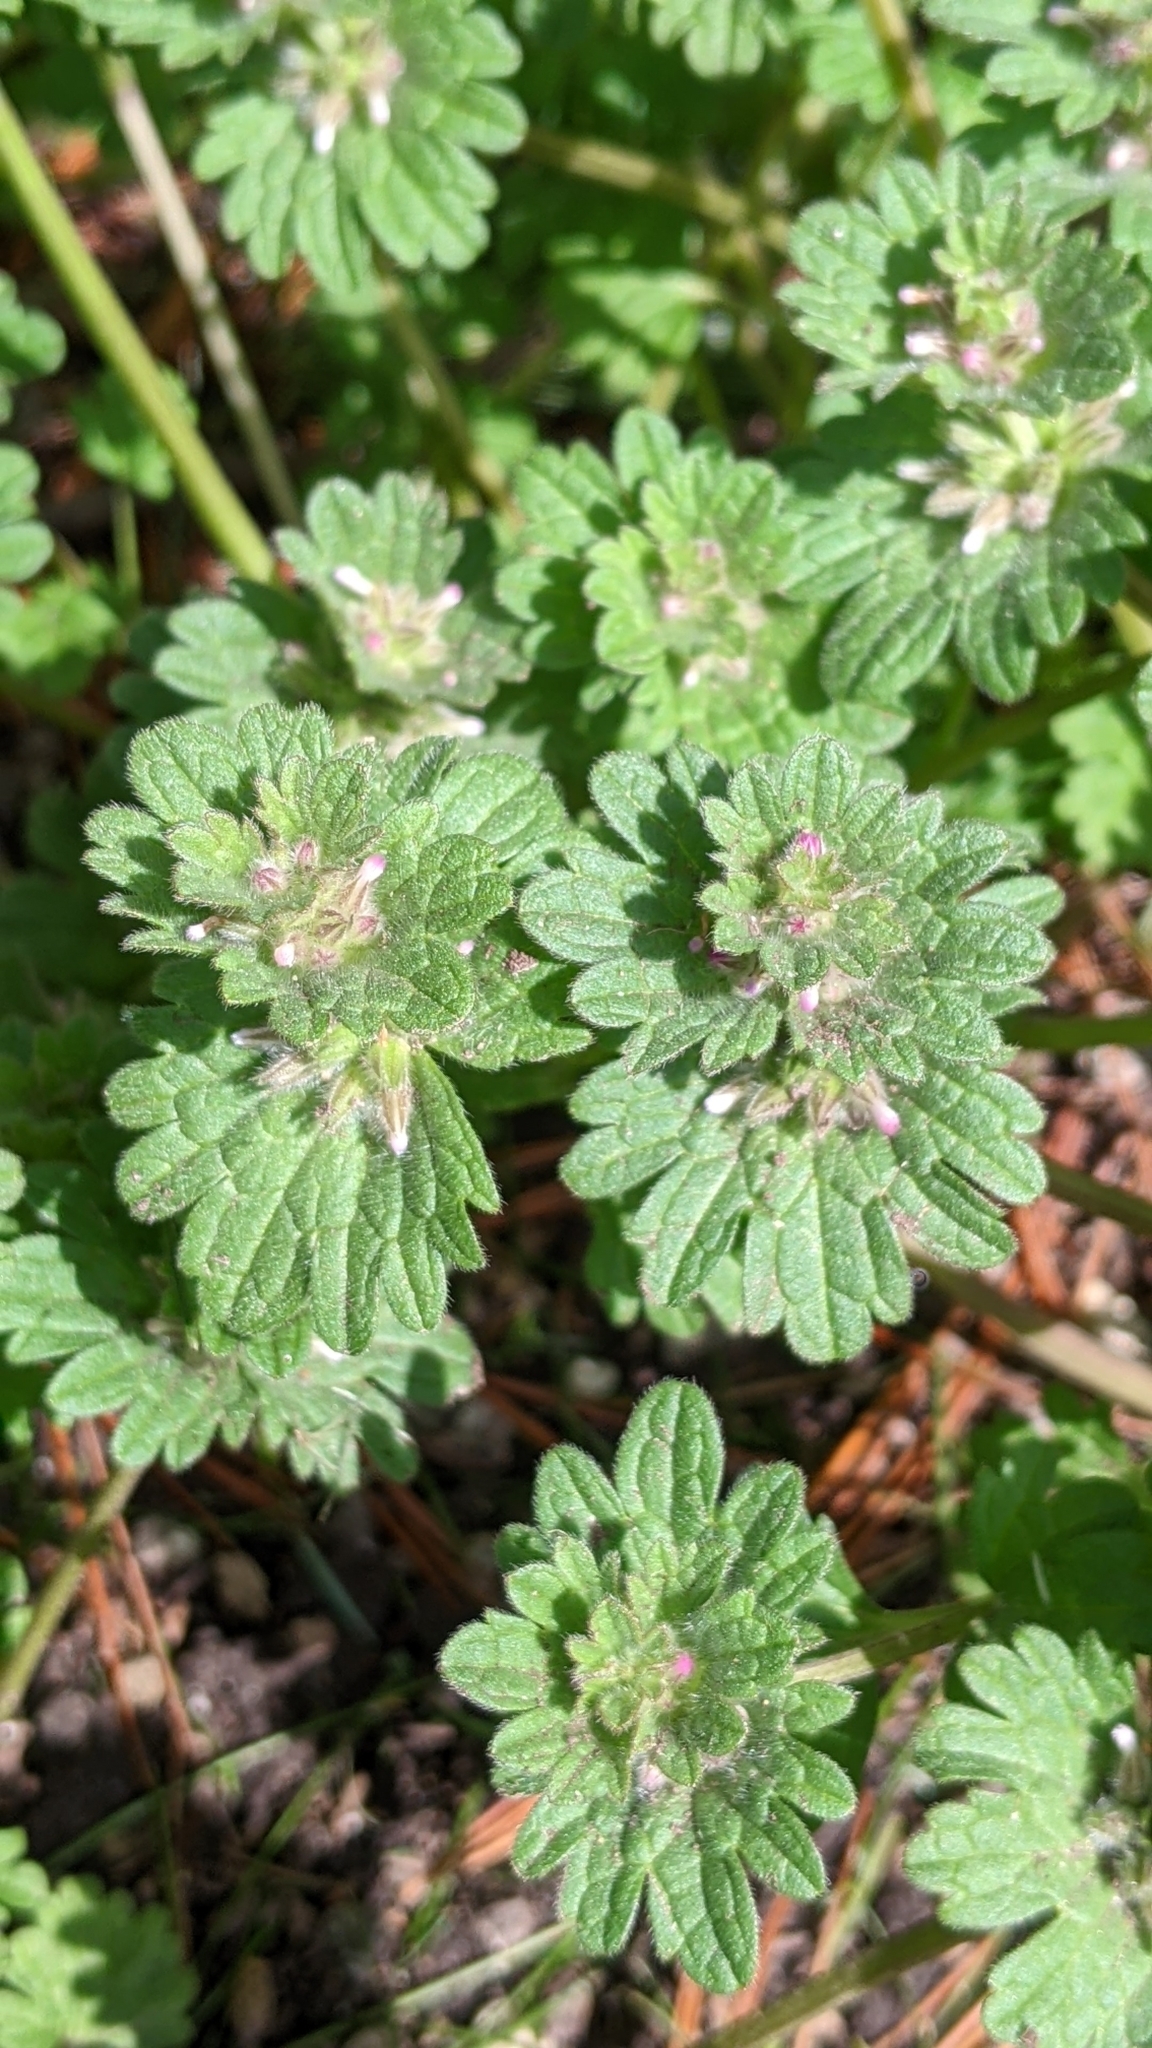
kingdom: Plantae
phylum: Tracheophyta
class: Magnoliopsida
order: Lamiales
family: Lamiaceae
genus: Lamium
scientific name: Lamium amplexicaule
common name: Henbit dead-nettle
